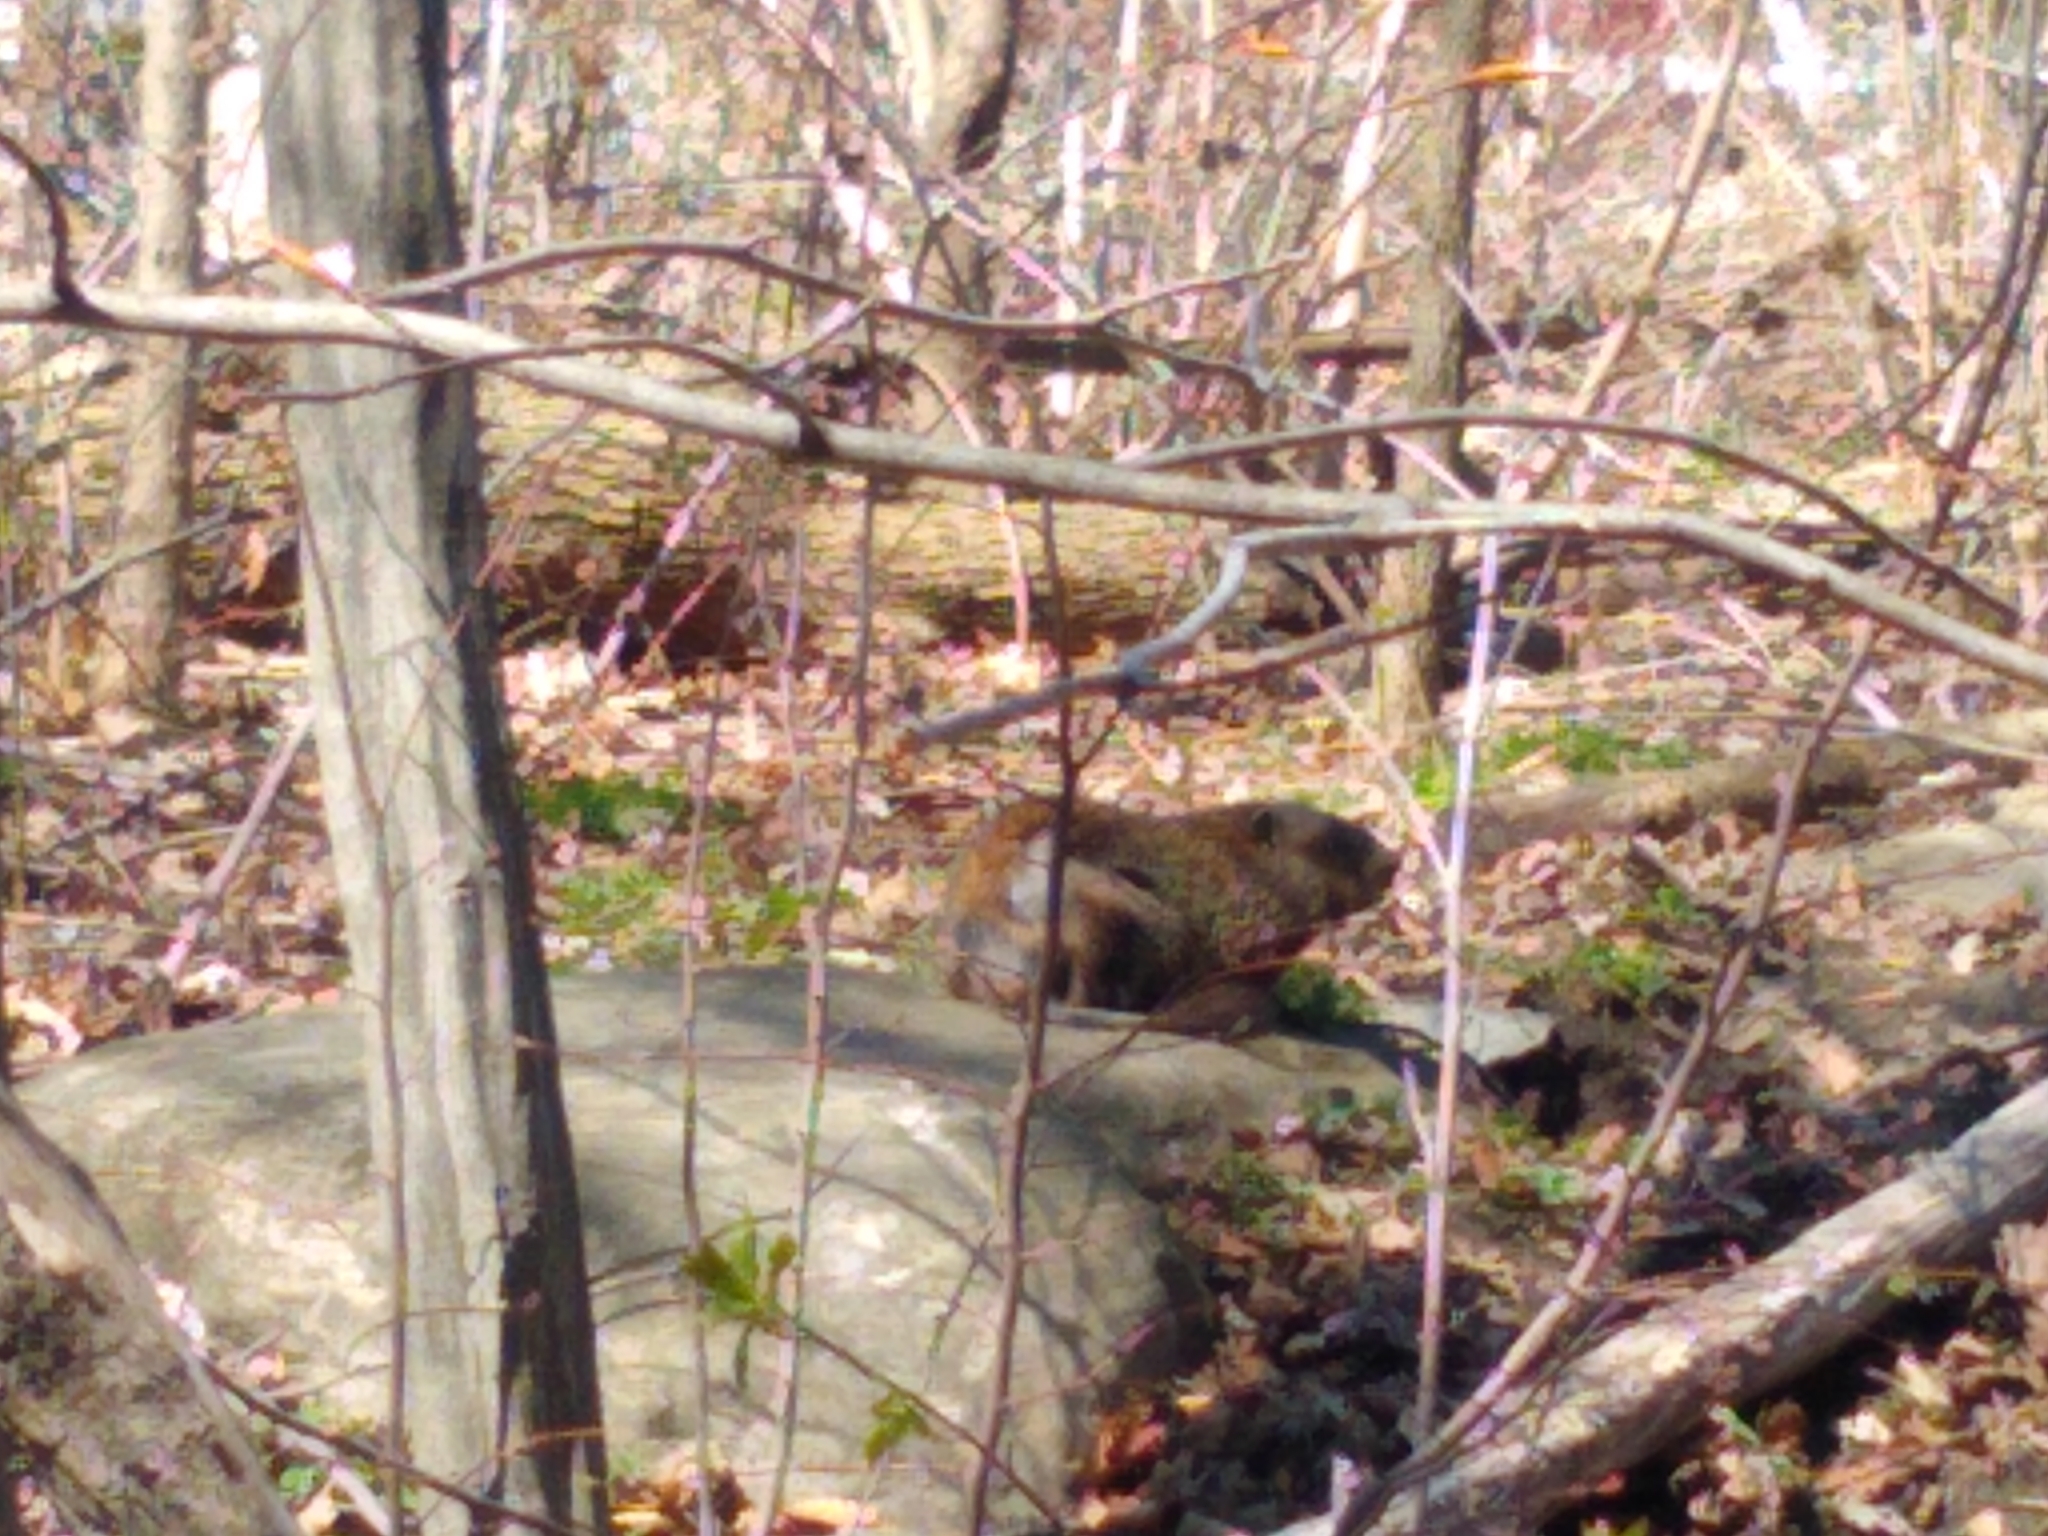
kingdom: Animalia
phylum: Chordata
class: Mammalia
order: Rodentia
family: Sciuridae
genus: Marmota
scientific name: Marmota monax
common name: Groundhog
